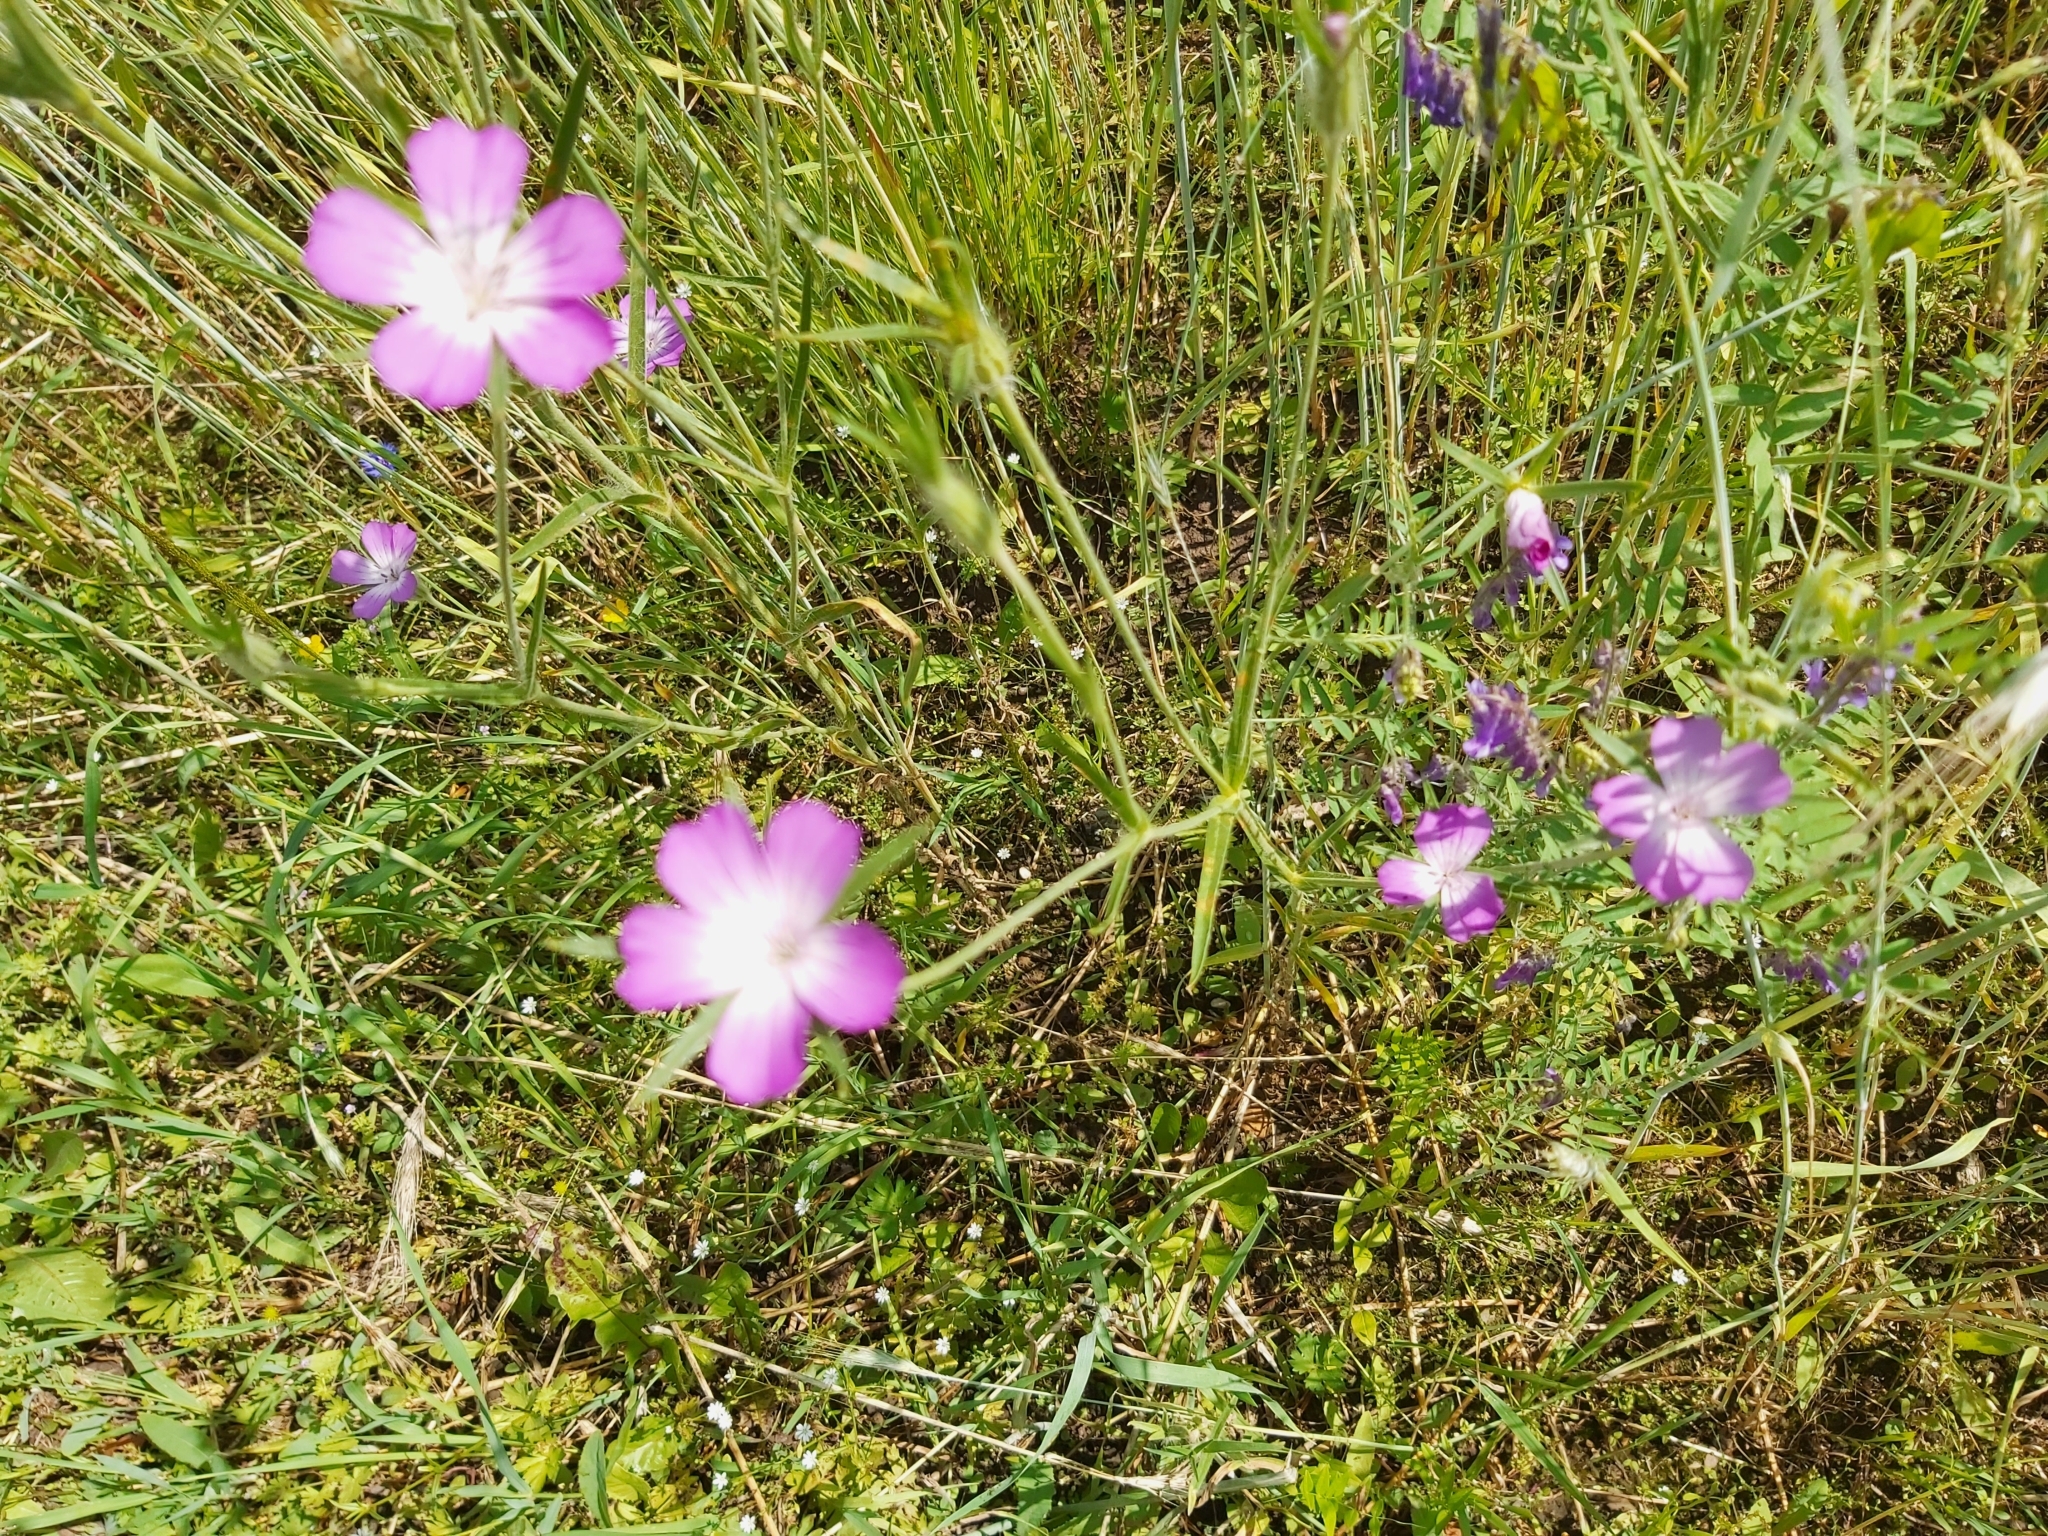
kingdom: Plantae
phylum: Tracheophyta
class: Magnoliopsida
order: Caryophyllales
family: Caryophyllaceae
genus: Agrostemma
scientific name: Agrostemma githago
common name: Common corncockle
